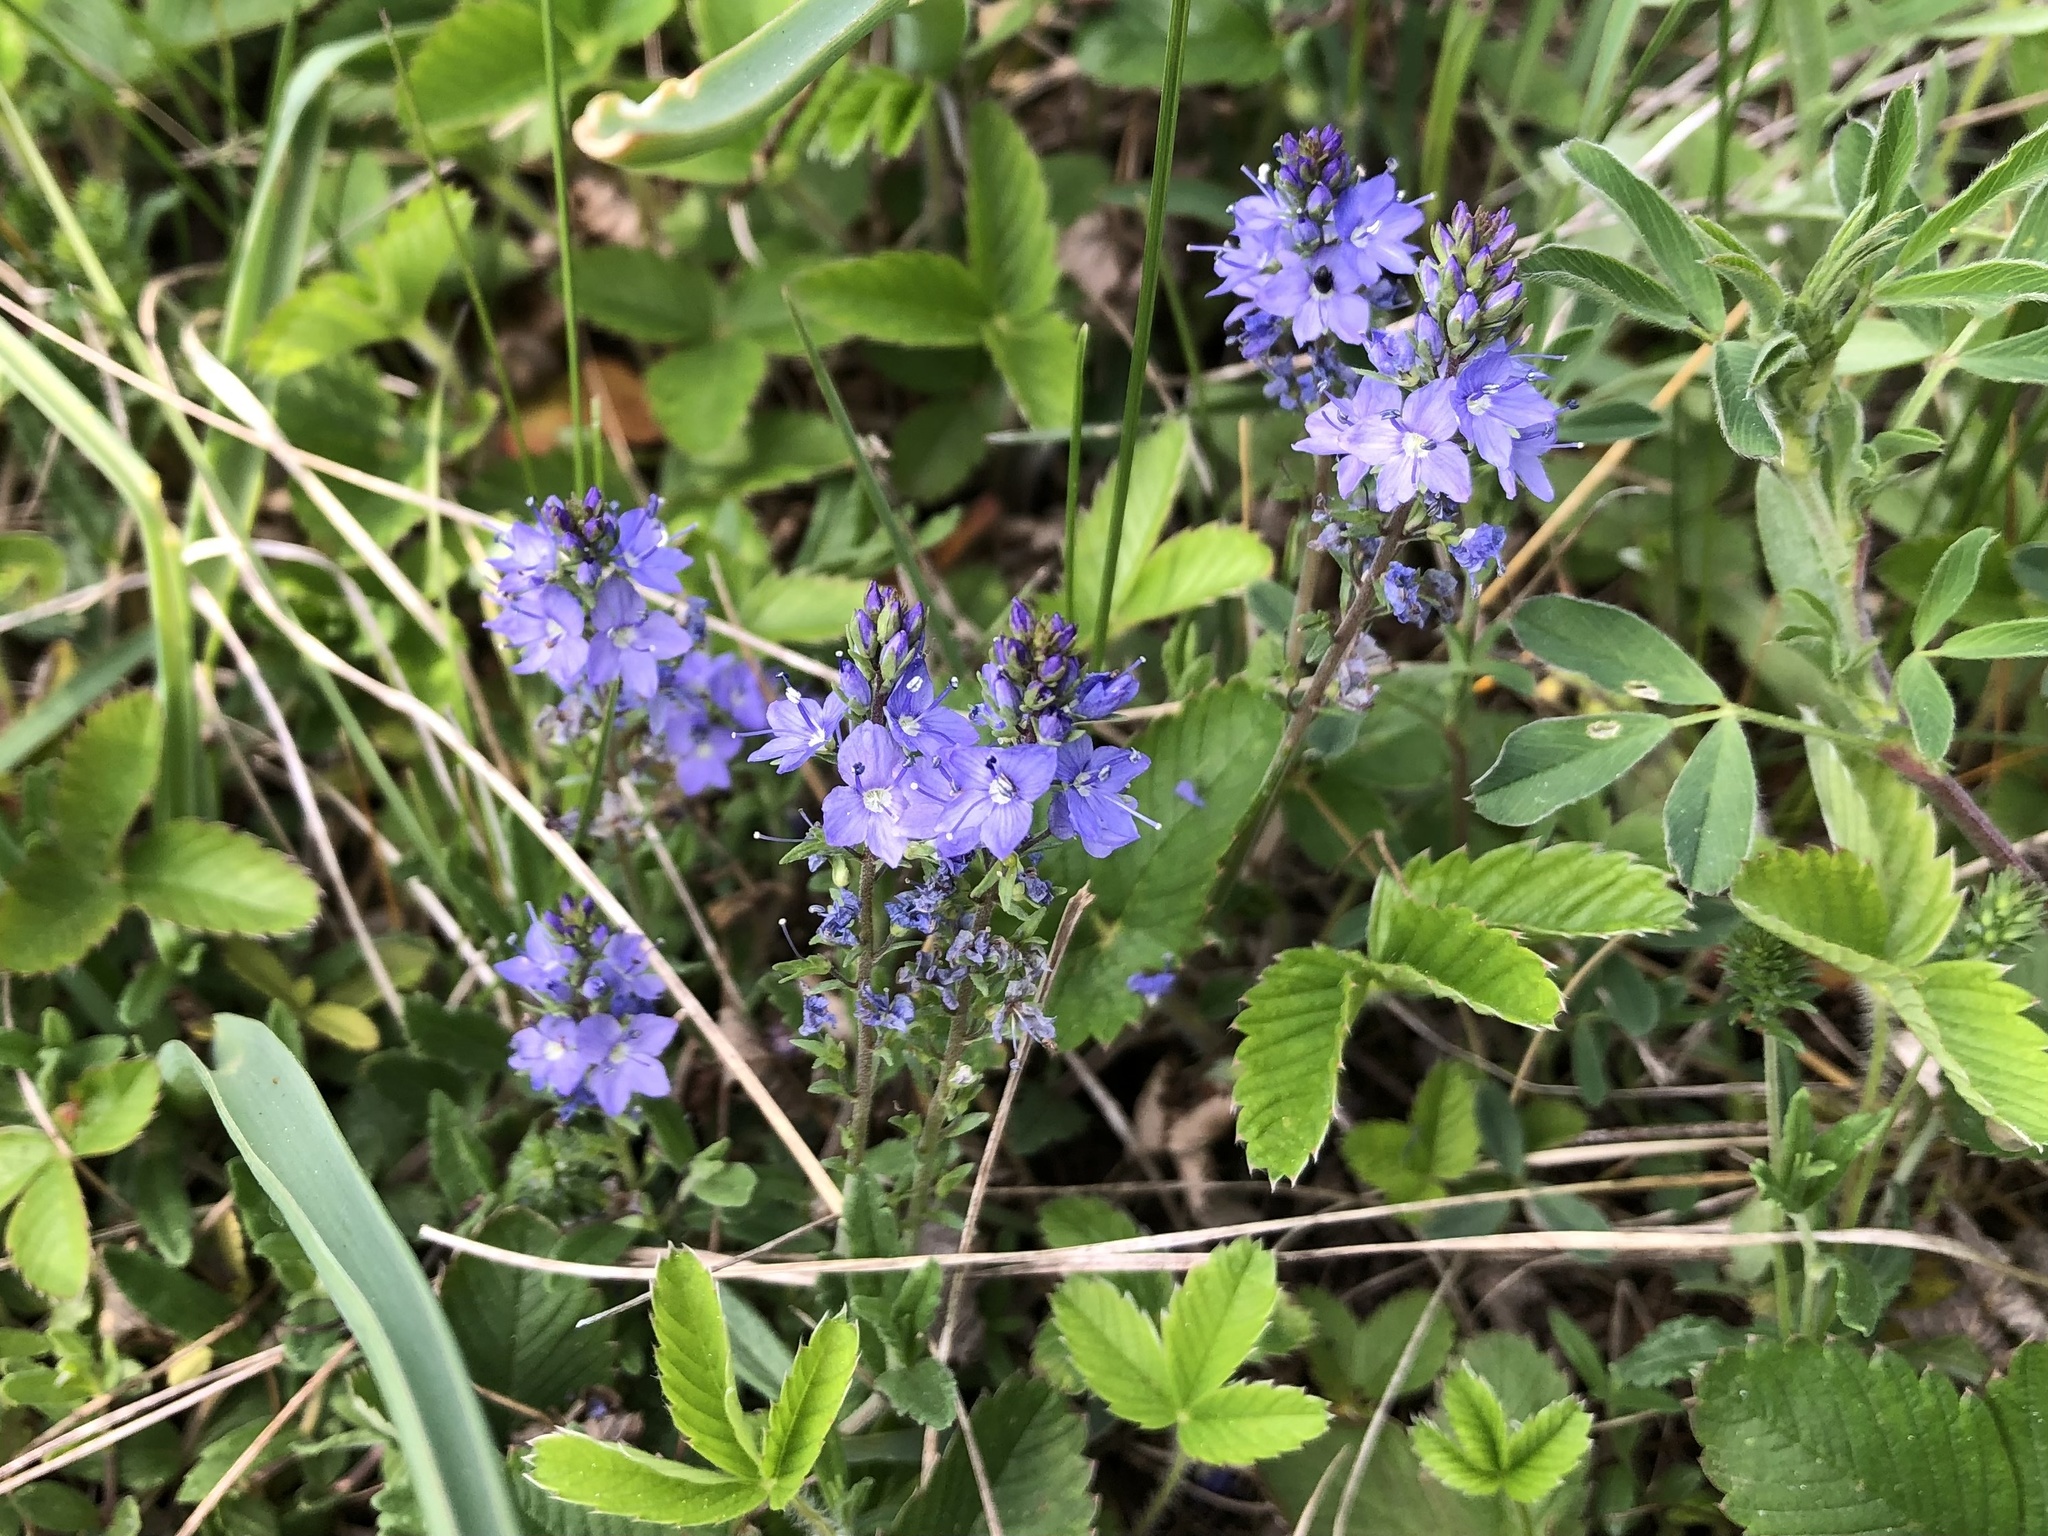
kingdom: Plantae
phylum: Tracheophyta
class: Magnoliopsida
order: Lamiales
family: Plantaginaceae
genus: Veronica
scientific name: Veronica prostrata
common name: Prostrate speedwell
